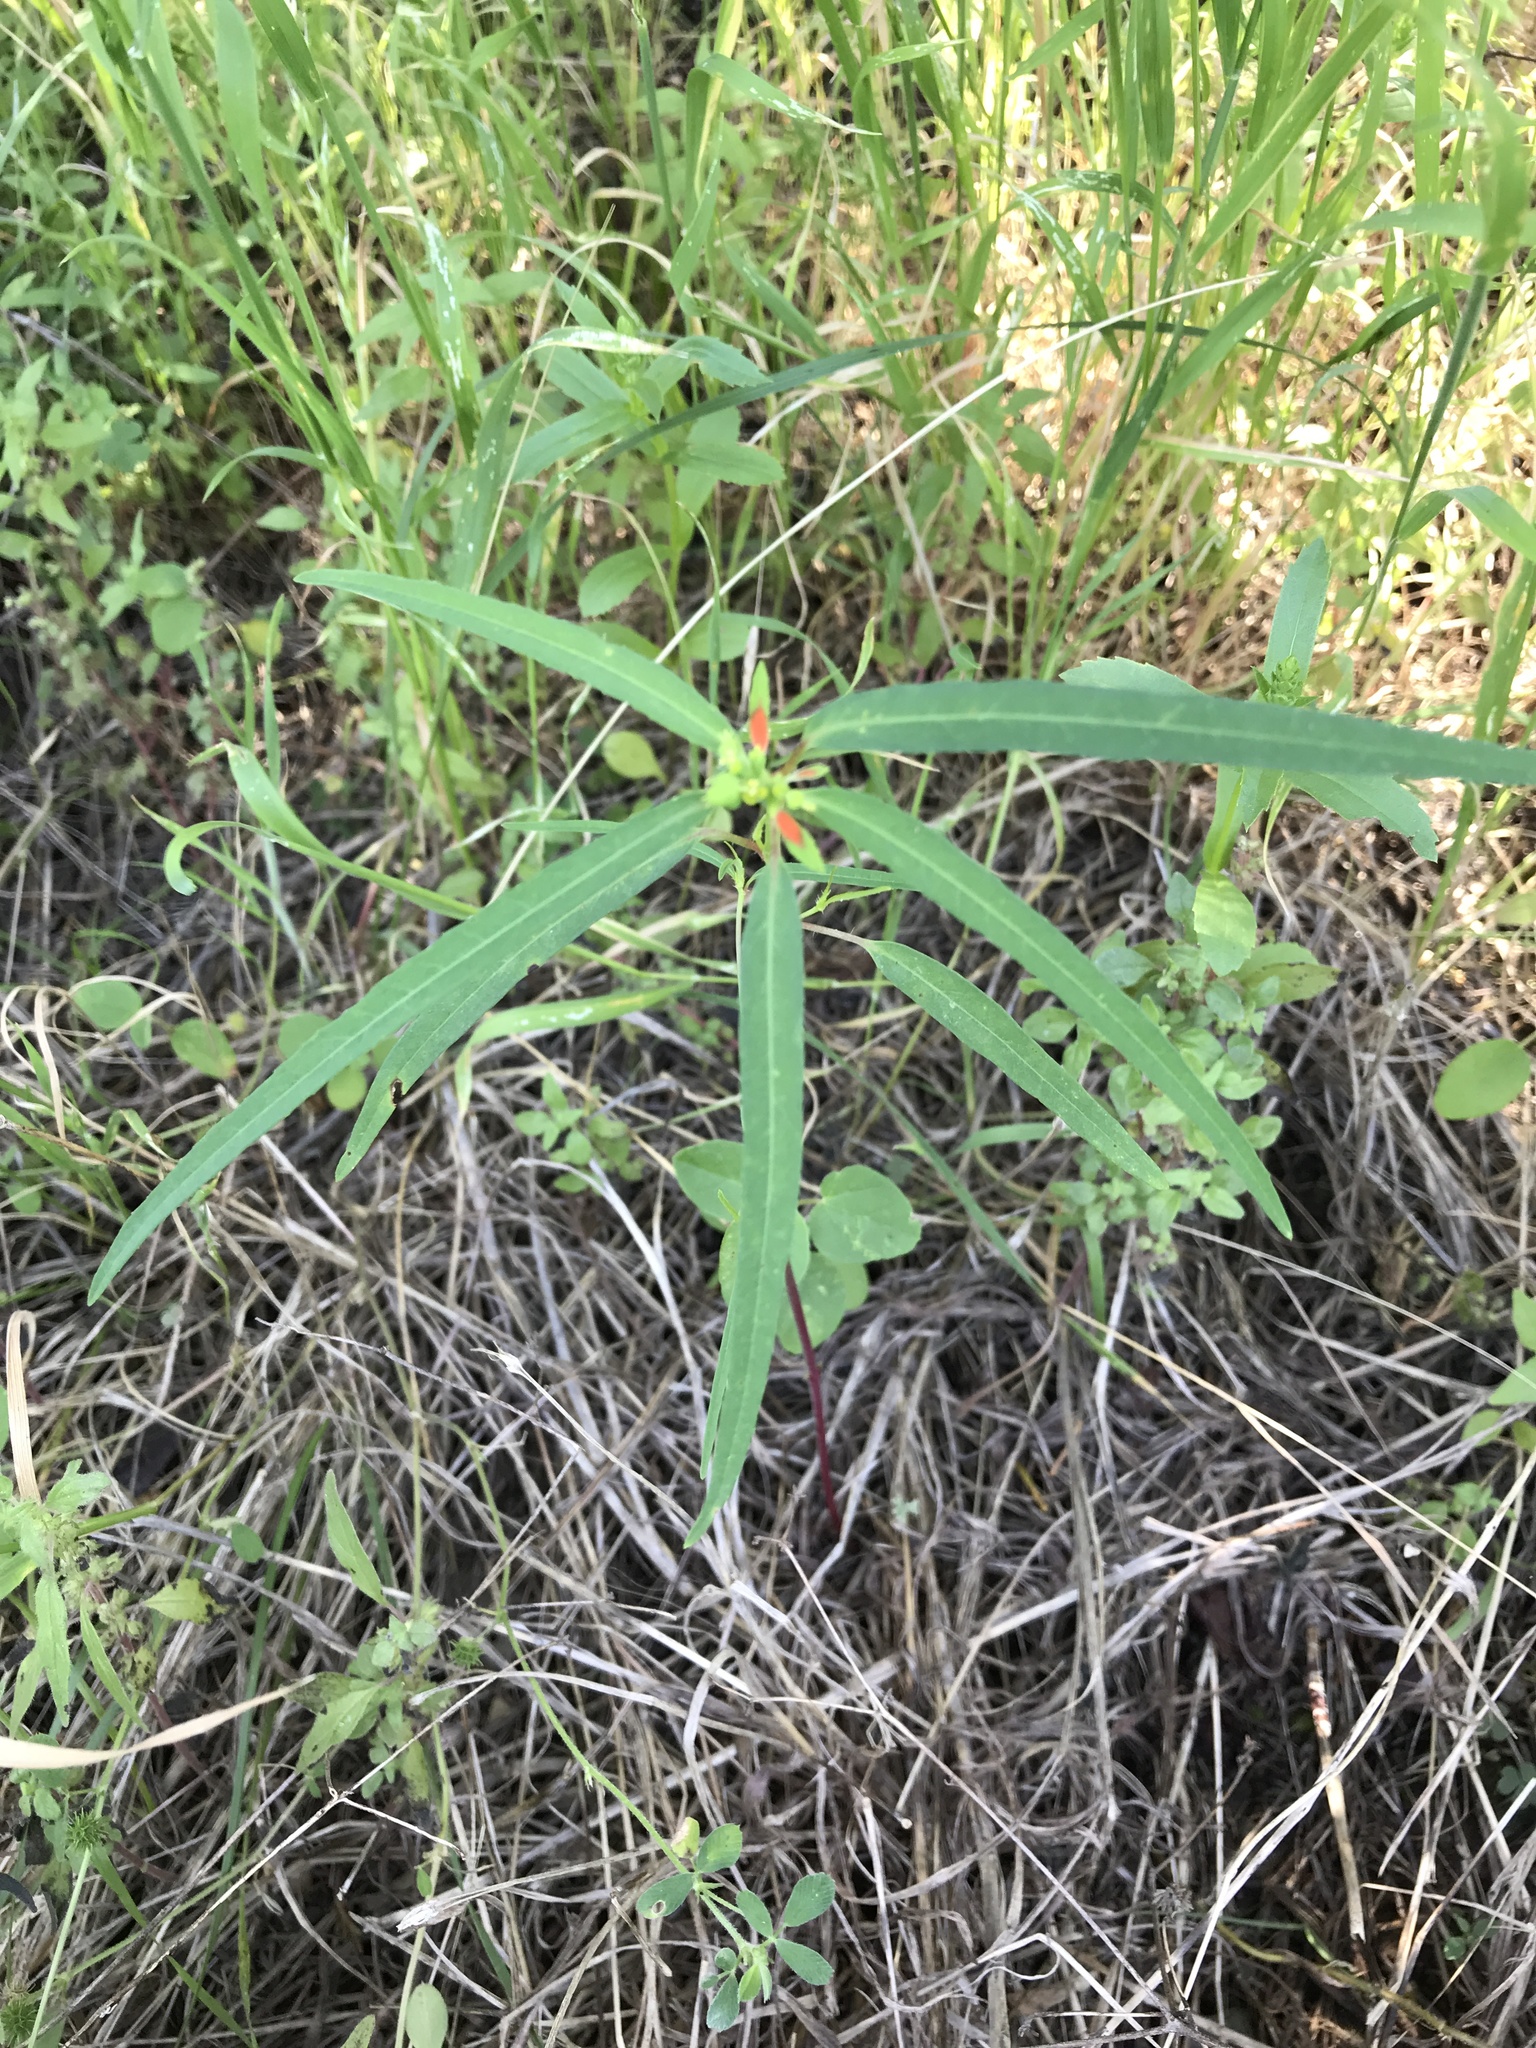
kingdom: Plantae
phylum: Tracheophyta
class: Magnoliopsida
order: Malpighiales
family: Euphorbiaceae
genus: Euphorbia
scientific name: Euphorbia heterophylla
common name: Mexican fireplant
